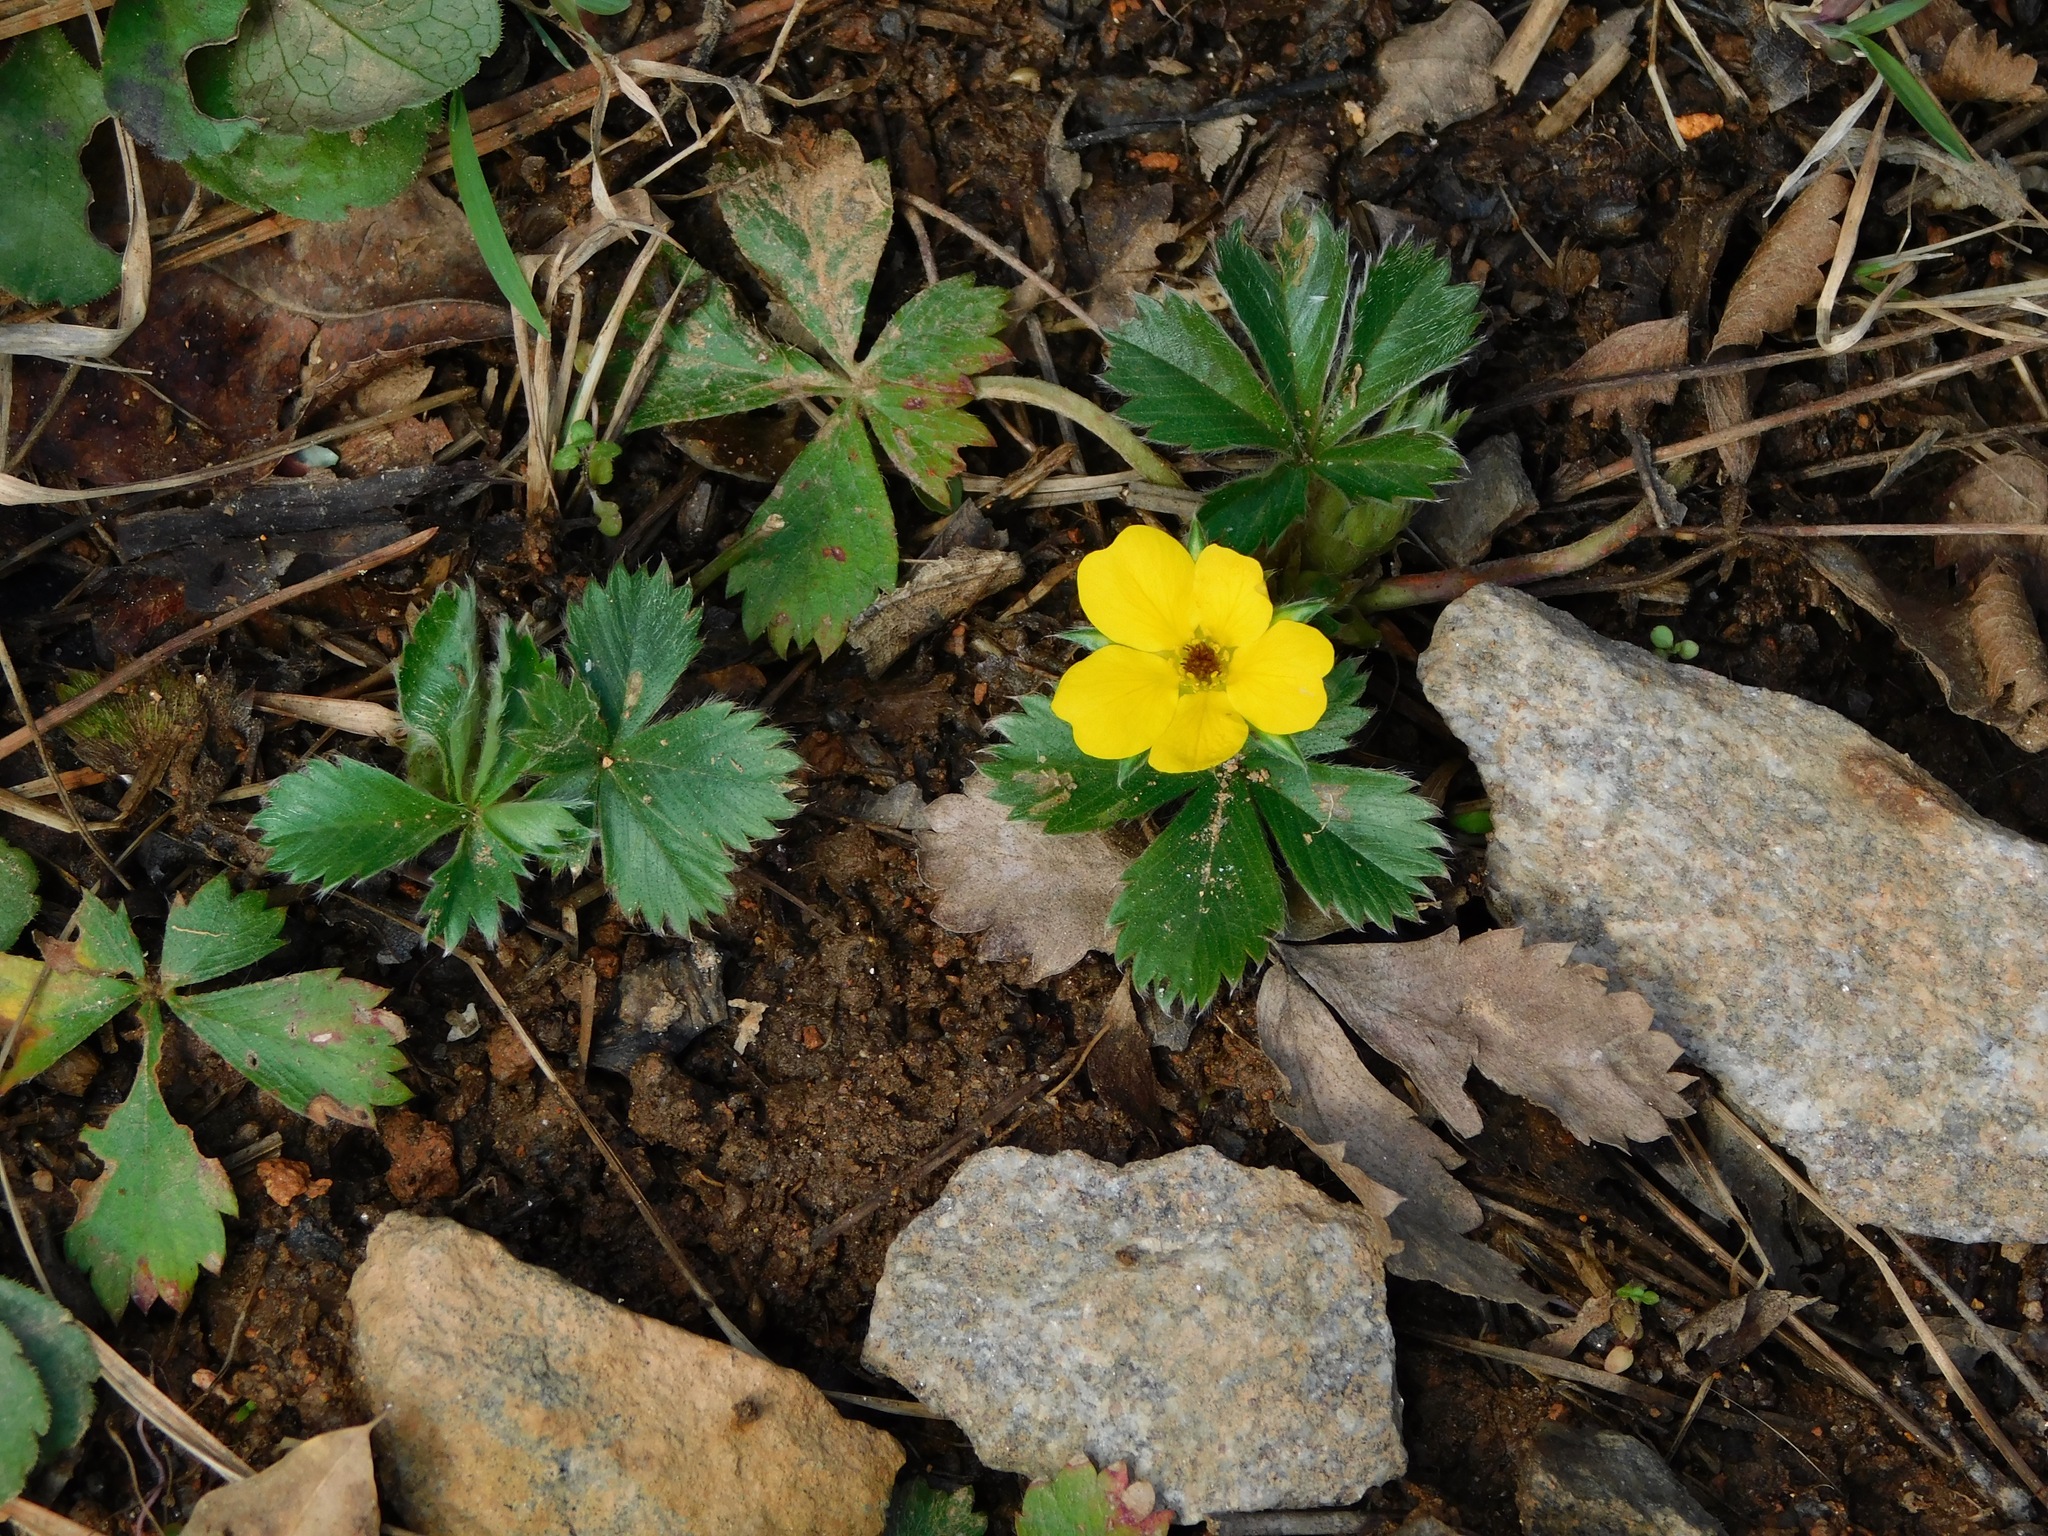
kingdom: Plantae
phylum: Tracheophyta
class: Magnoliopsida
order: Rosales
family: Rosaceae
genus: Potentilla
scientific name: Potentilla canadensis
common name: Canada cinquefoil
